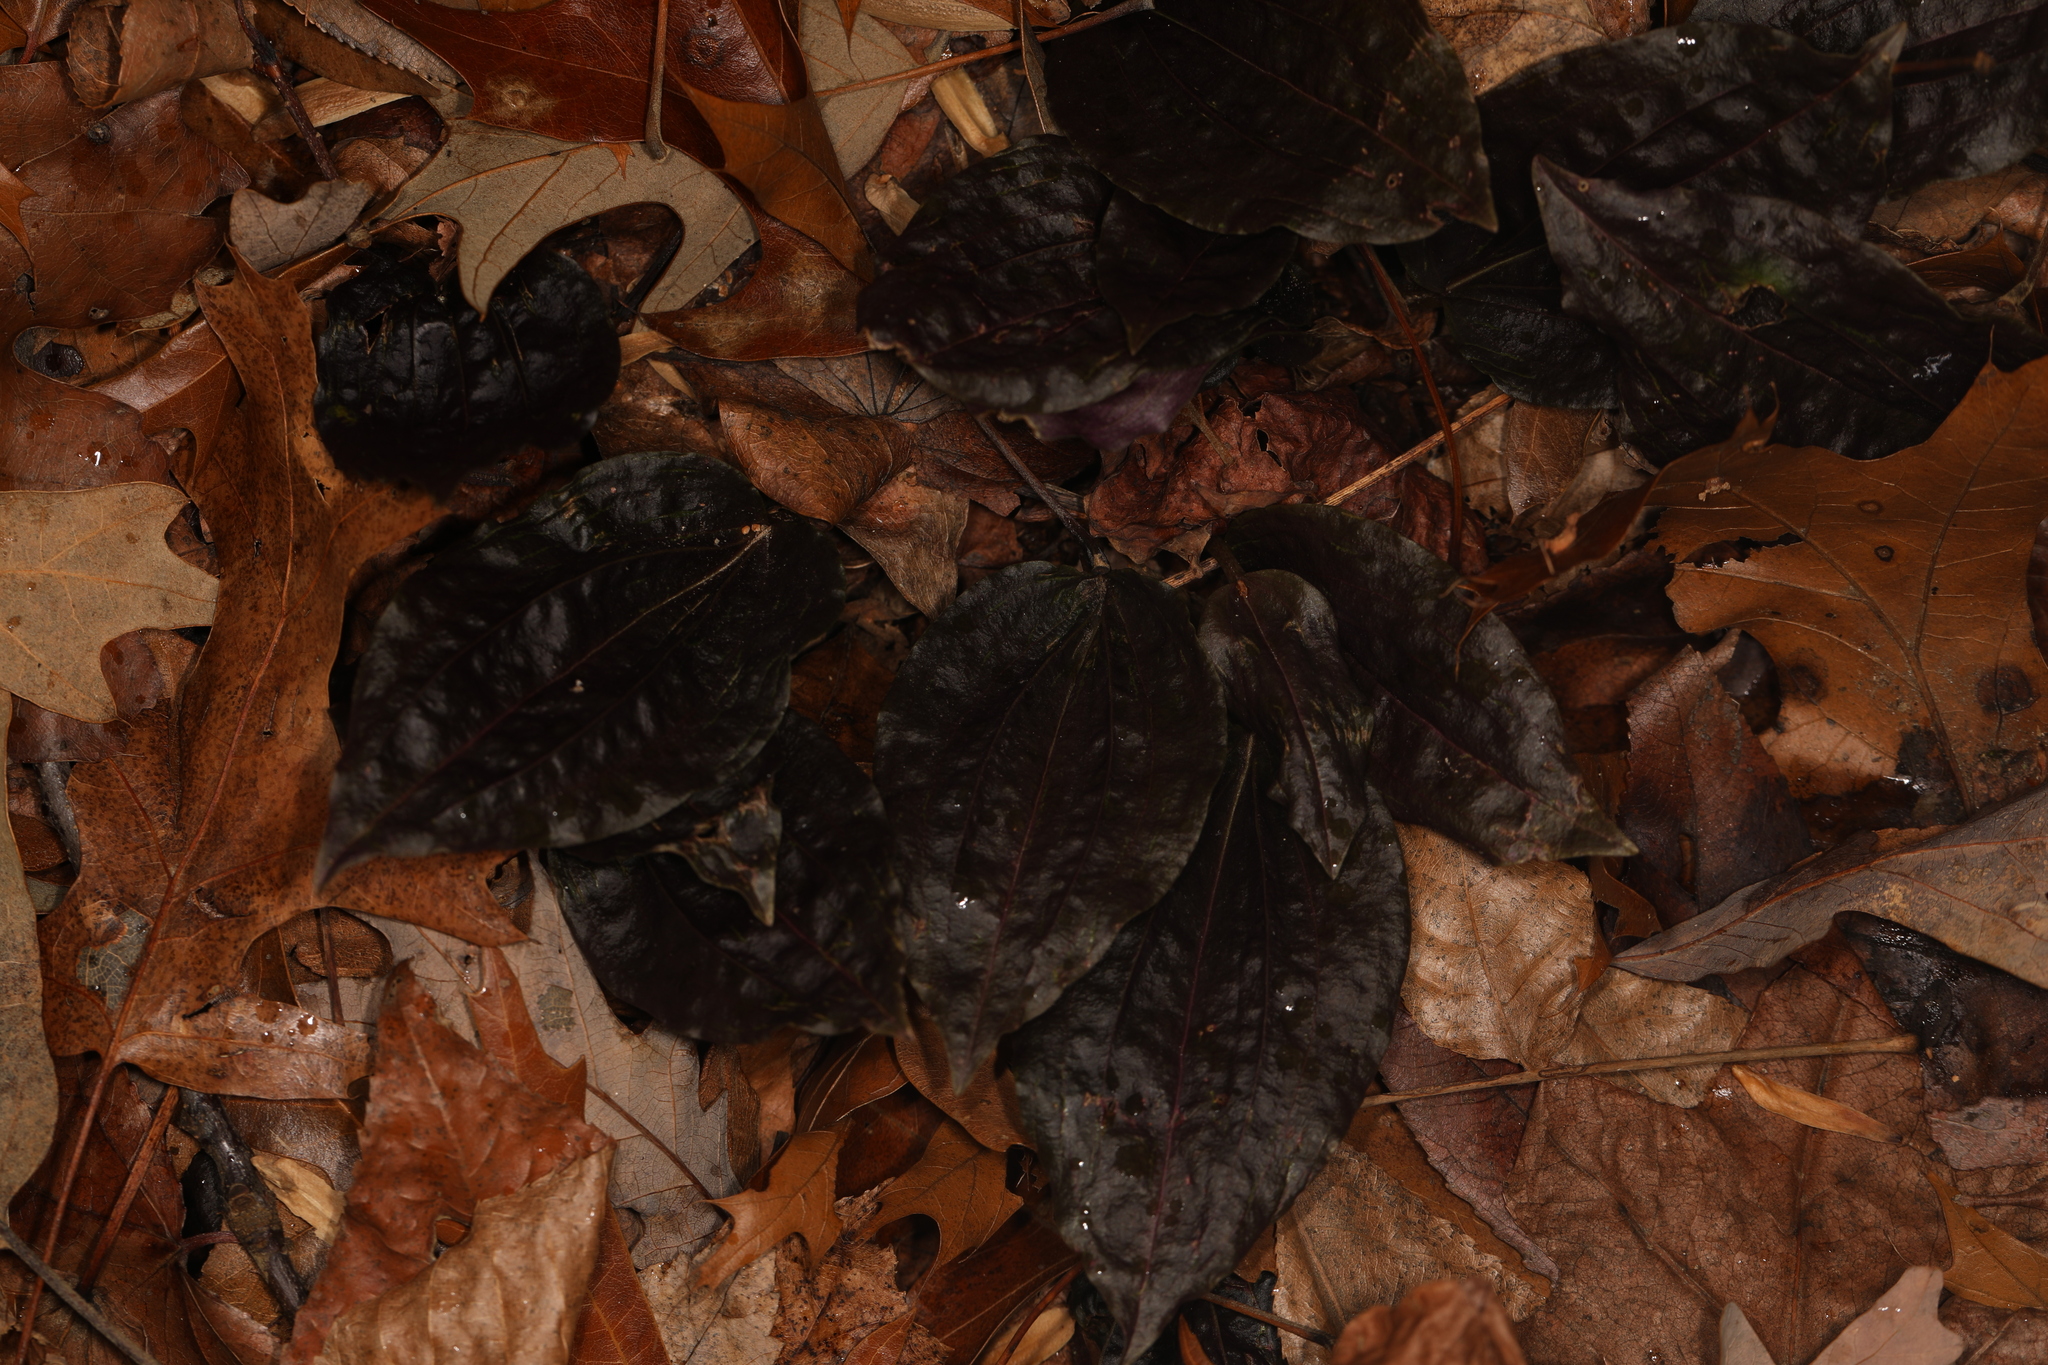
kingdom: Plantae
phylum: Tracheophyta
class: Liliopsida
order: Asparagales
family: Orchidaceae
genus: Tipularia
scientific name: Tipularia discolor
